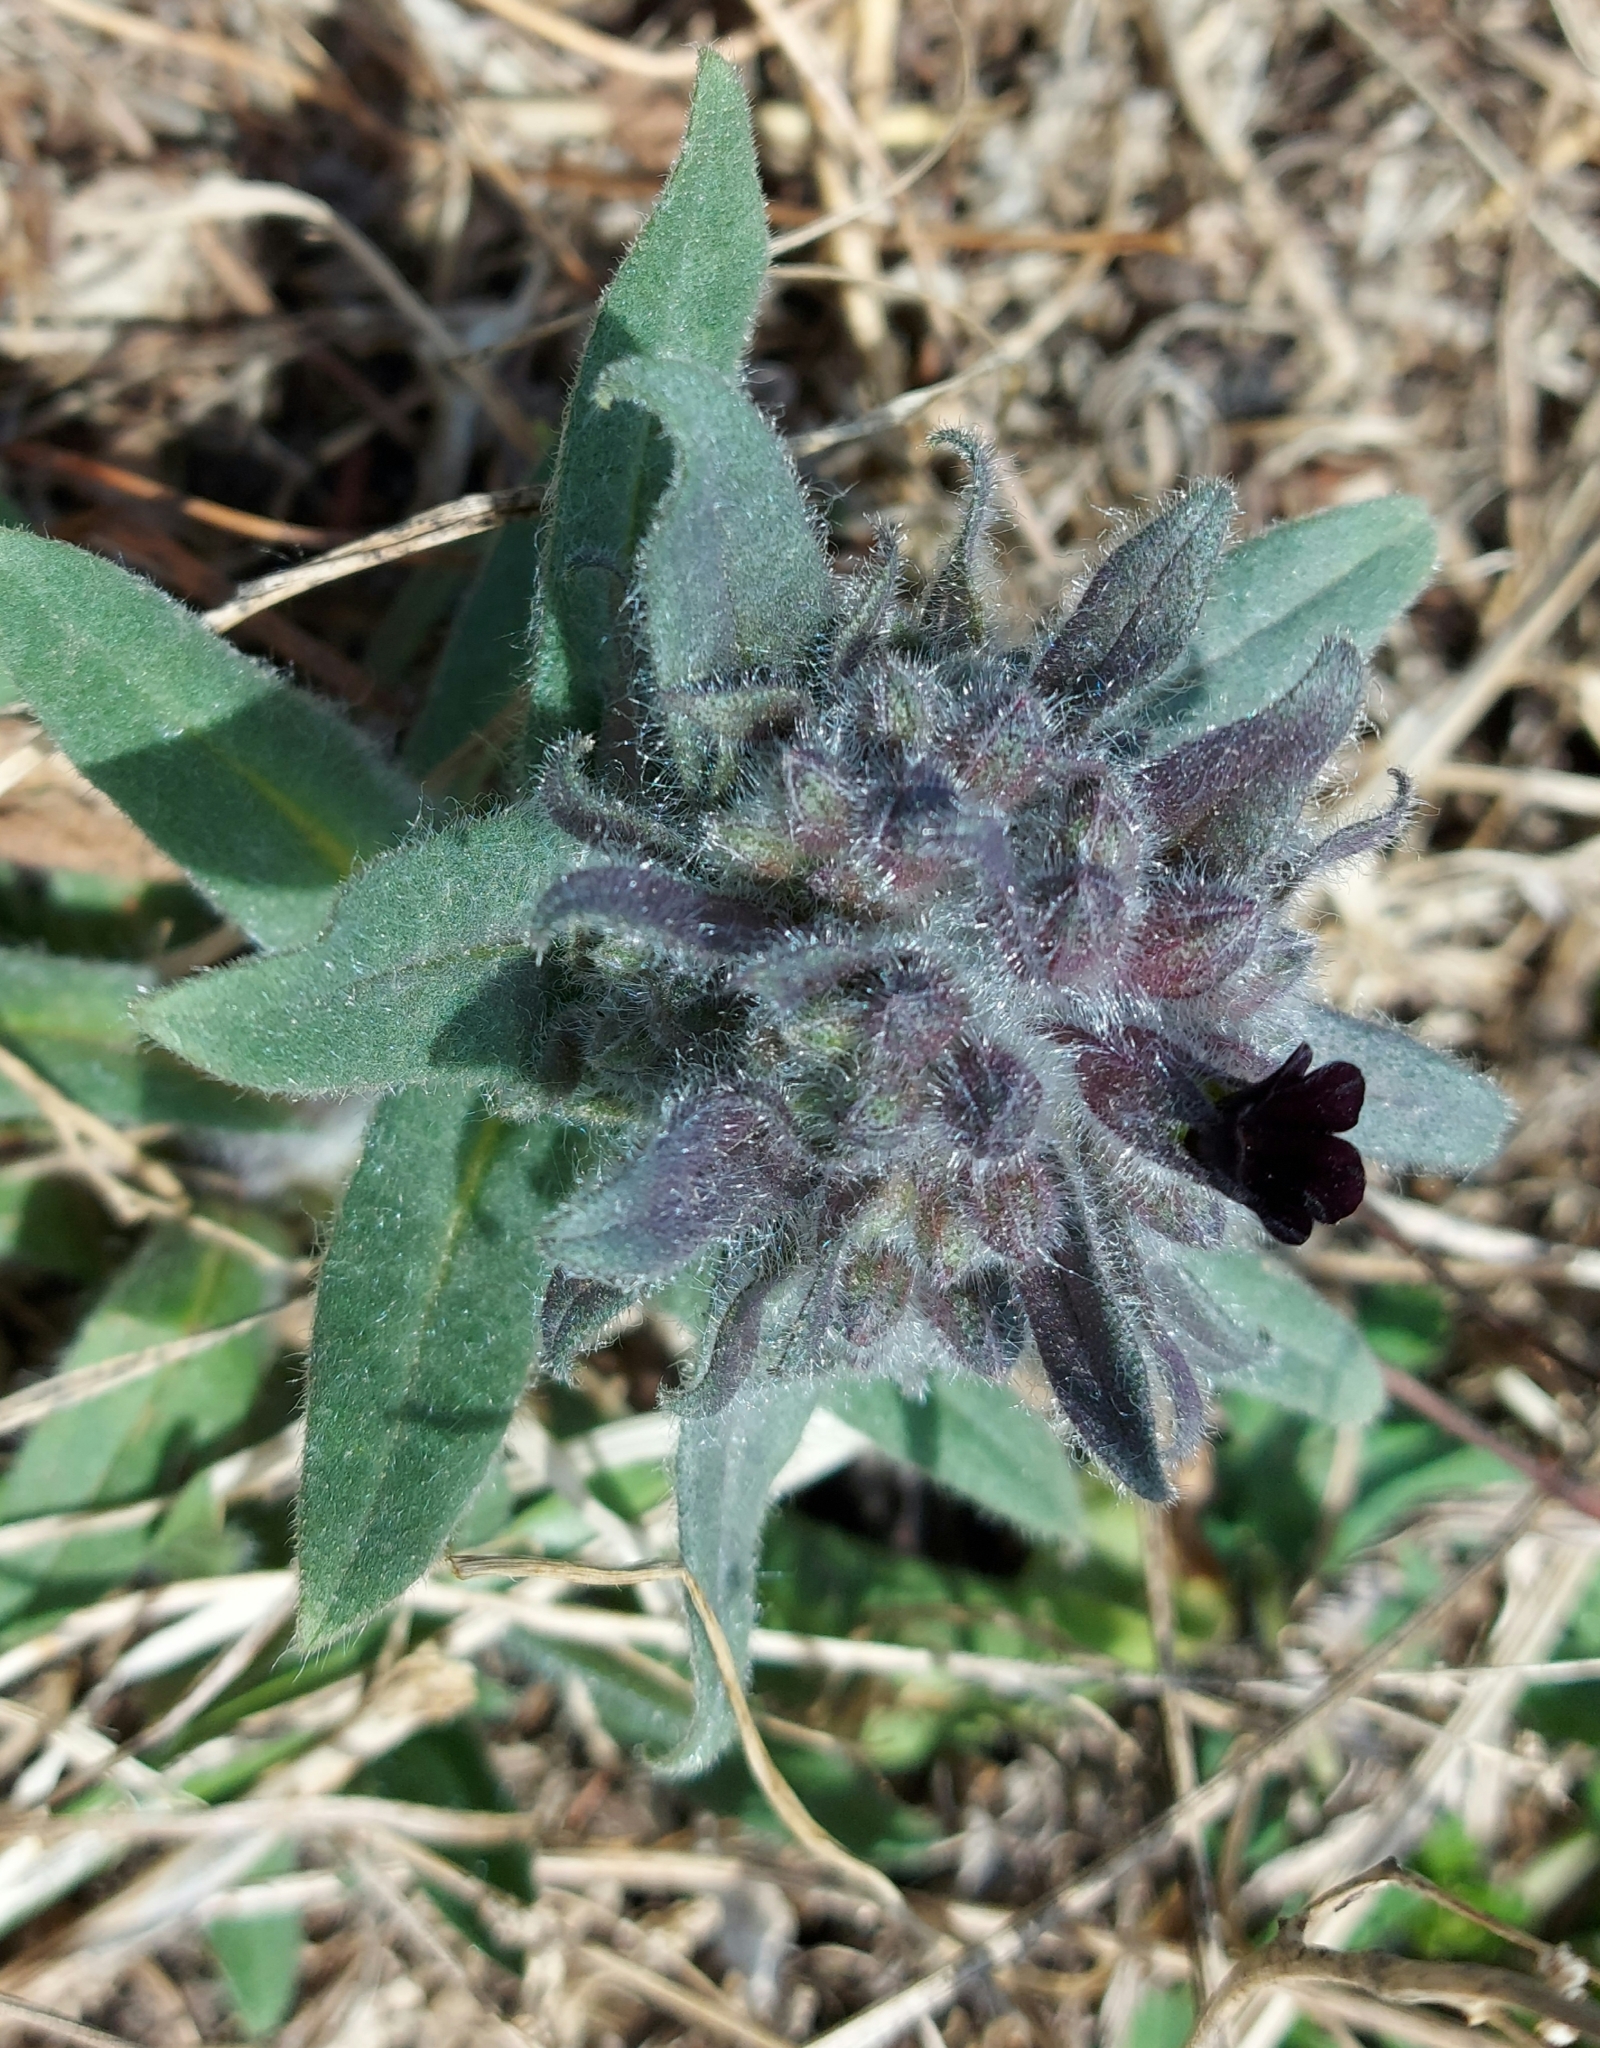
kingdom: Plantae
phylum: Tracheophyta
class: Magnoliopsida
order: Boraginales
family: Boraginaceae
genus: Nonea
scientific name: Nonea pulla
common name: Brown nonea
